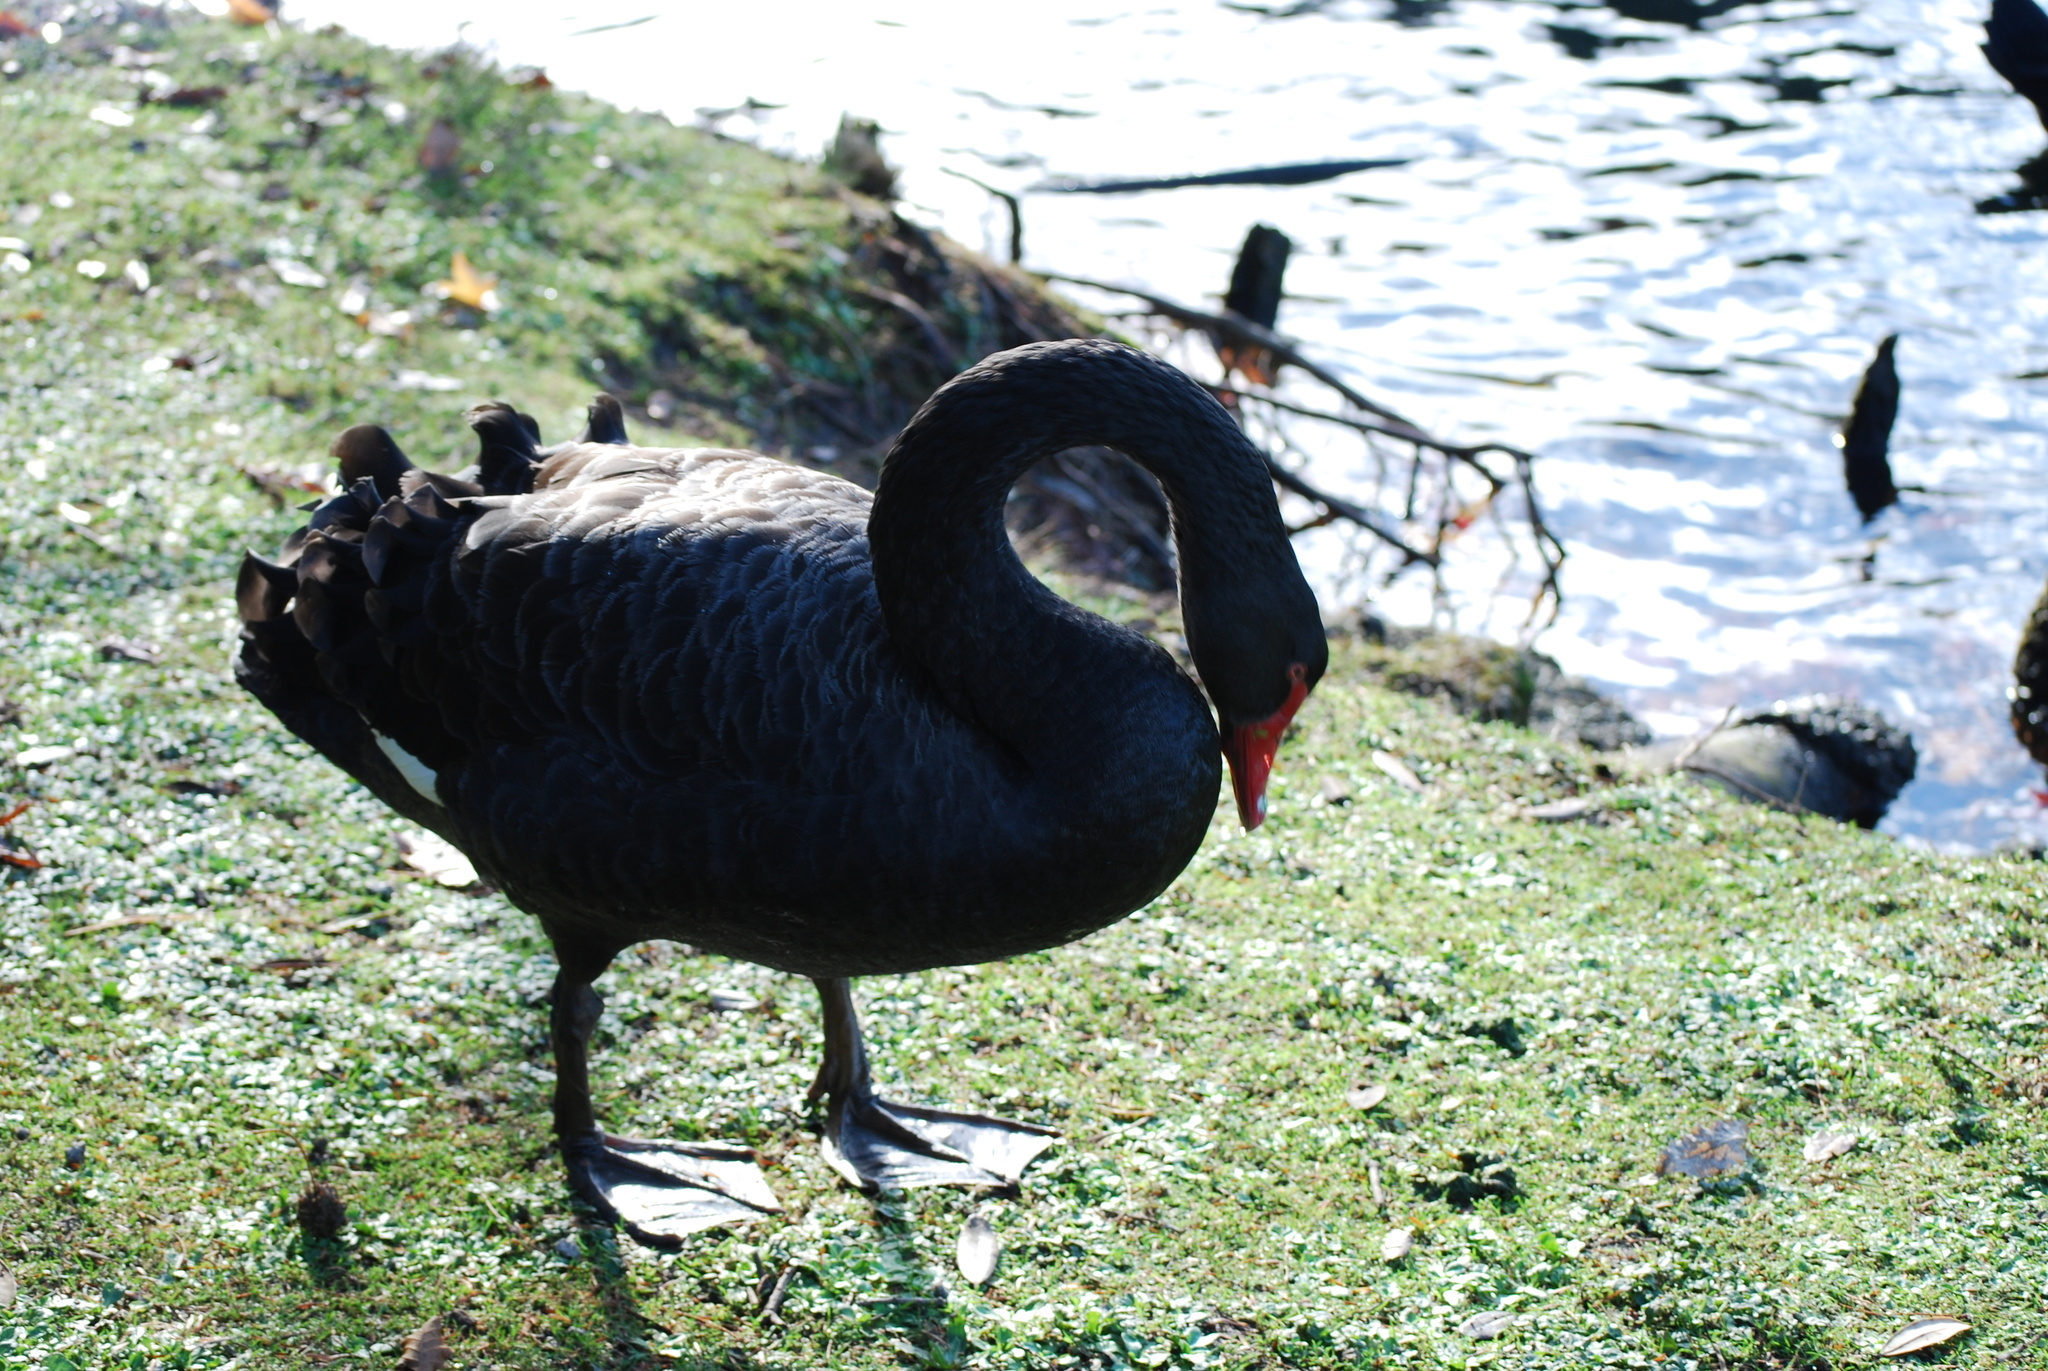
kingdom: Animalia
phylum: Chordata
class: Aves
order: Anseriformes
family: Anatidae
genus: Cygnus
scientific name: Cygnus atratus
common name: Black swan
